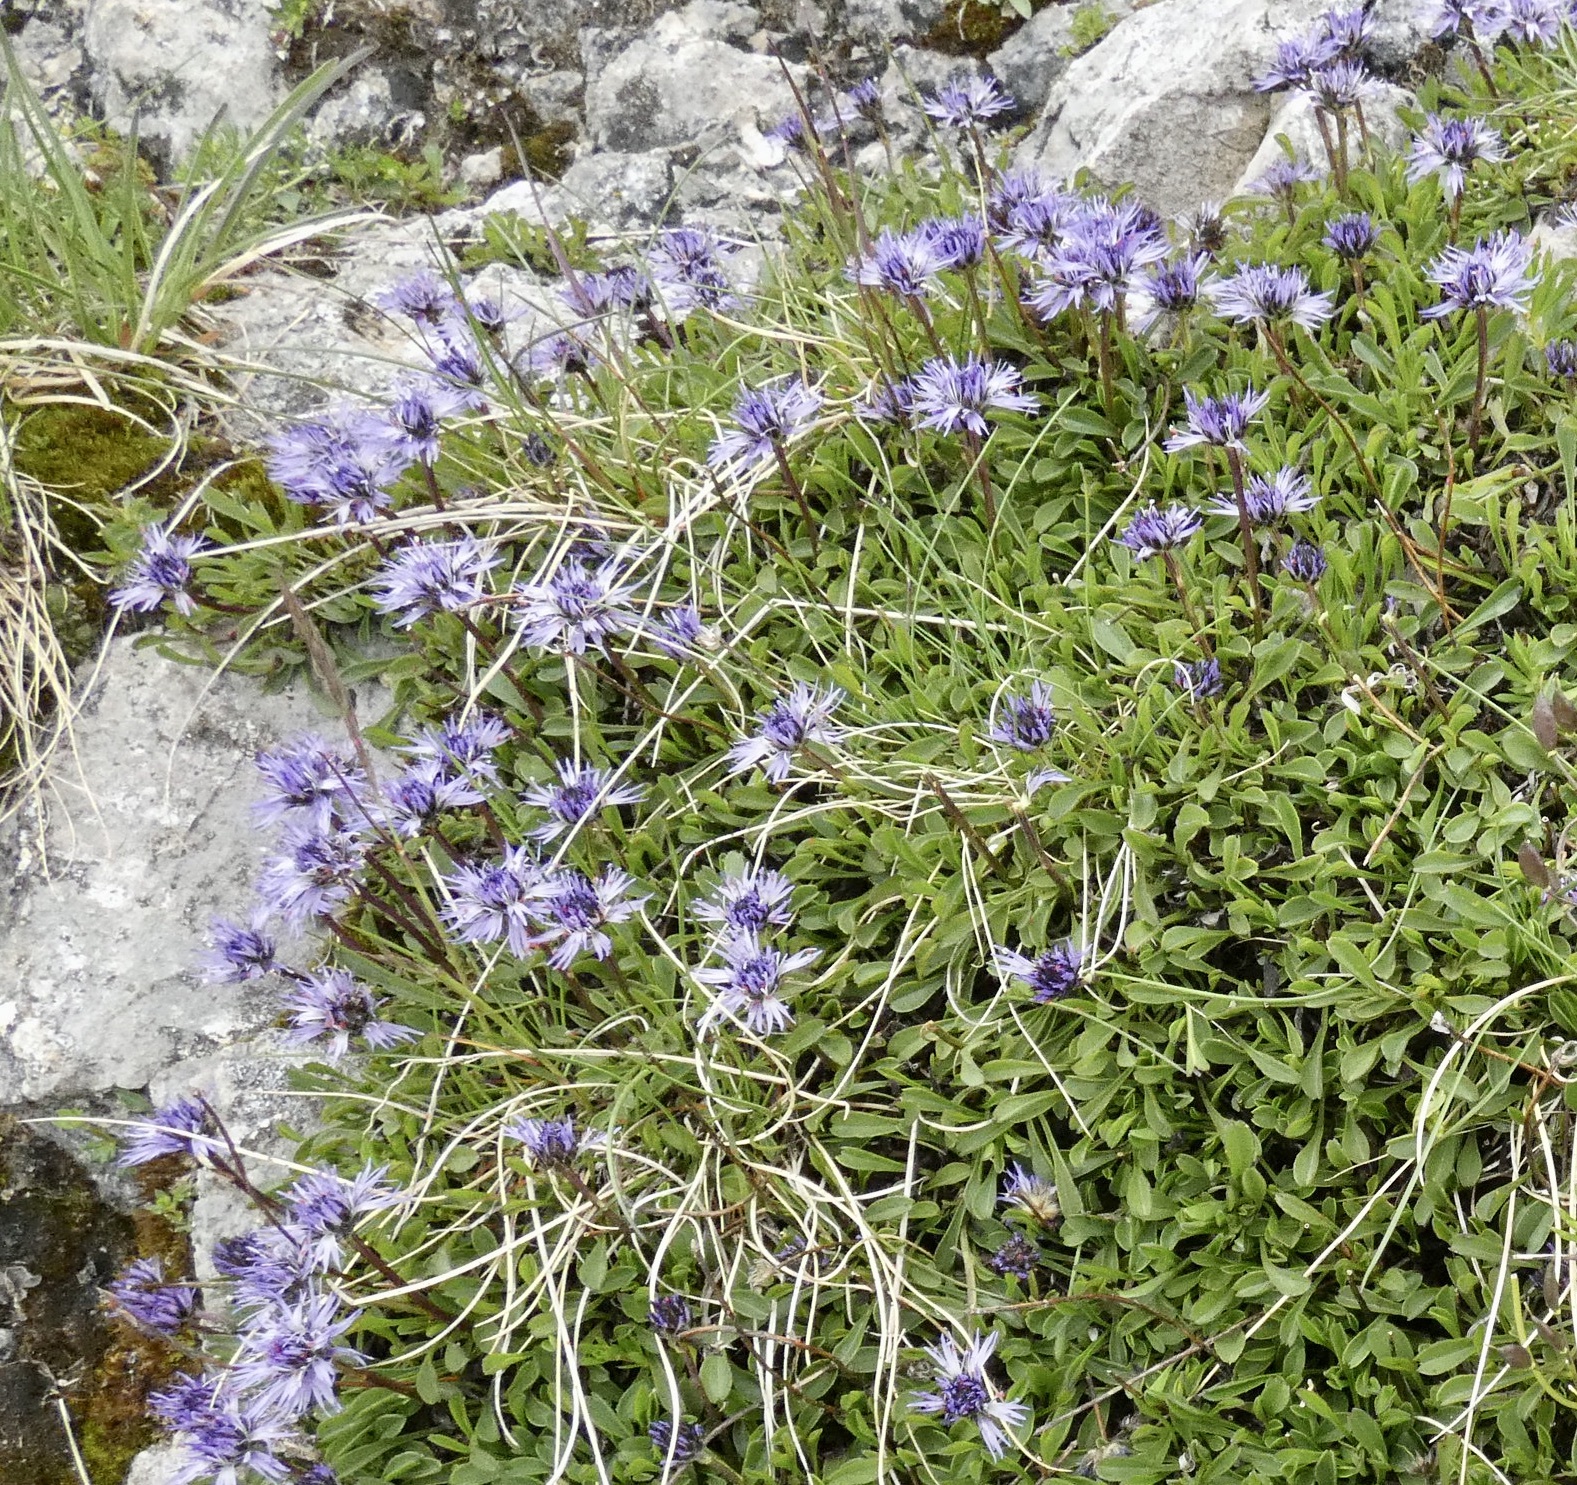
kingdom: Plantae
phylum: Tracheophyta
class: Magnoliopsida
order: Lamiales
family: Plantaginaceae
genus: Globularia
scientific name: Globularia cordifolia
